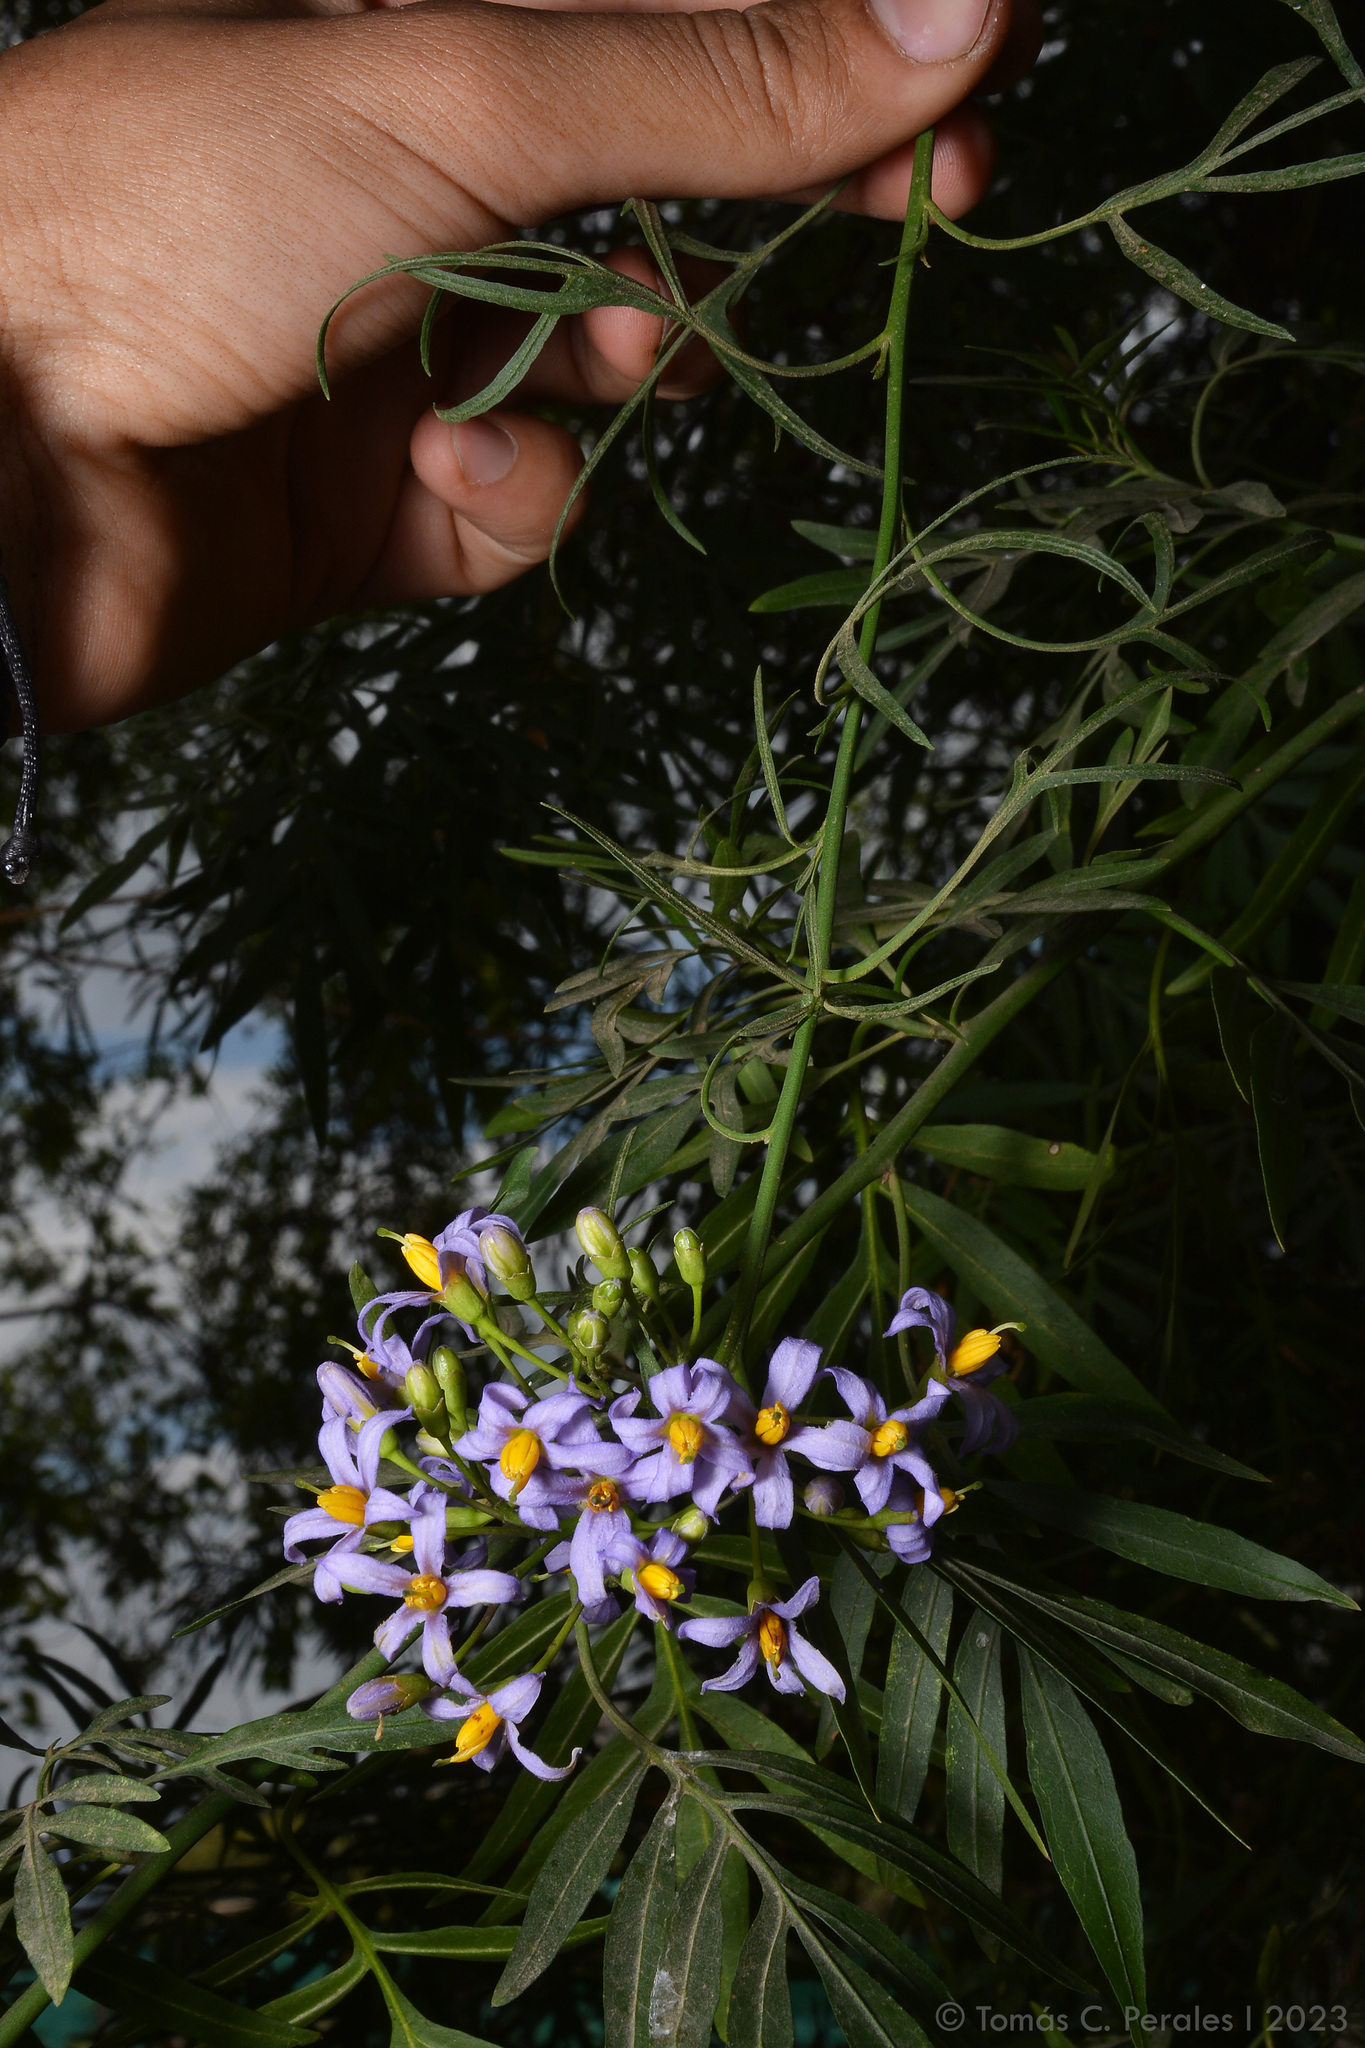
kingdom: Plantae
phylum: Tracheophyta
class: Magnoliopsida
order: Solanales
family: Solanaceae
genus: Solanum
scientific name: Solanum angustifidum
